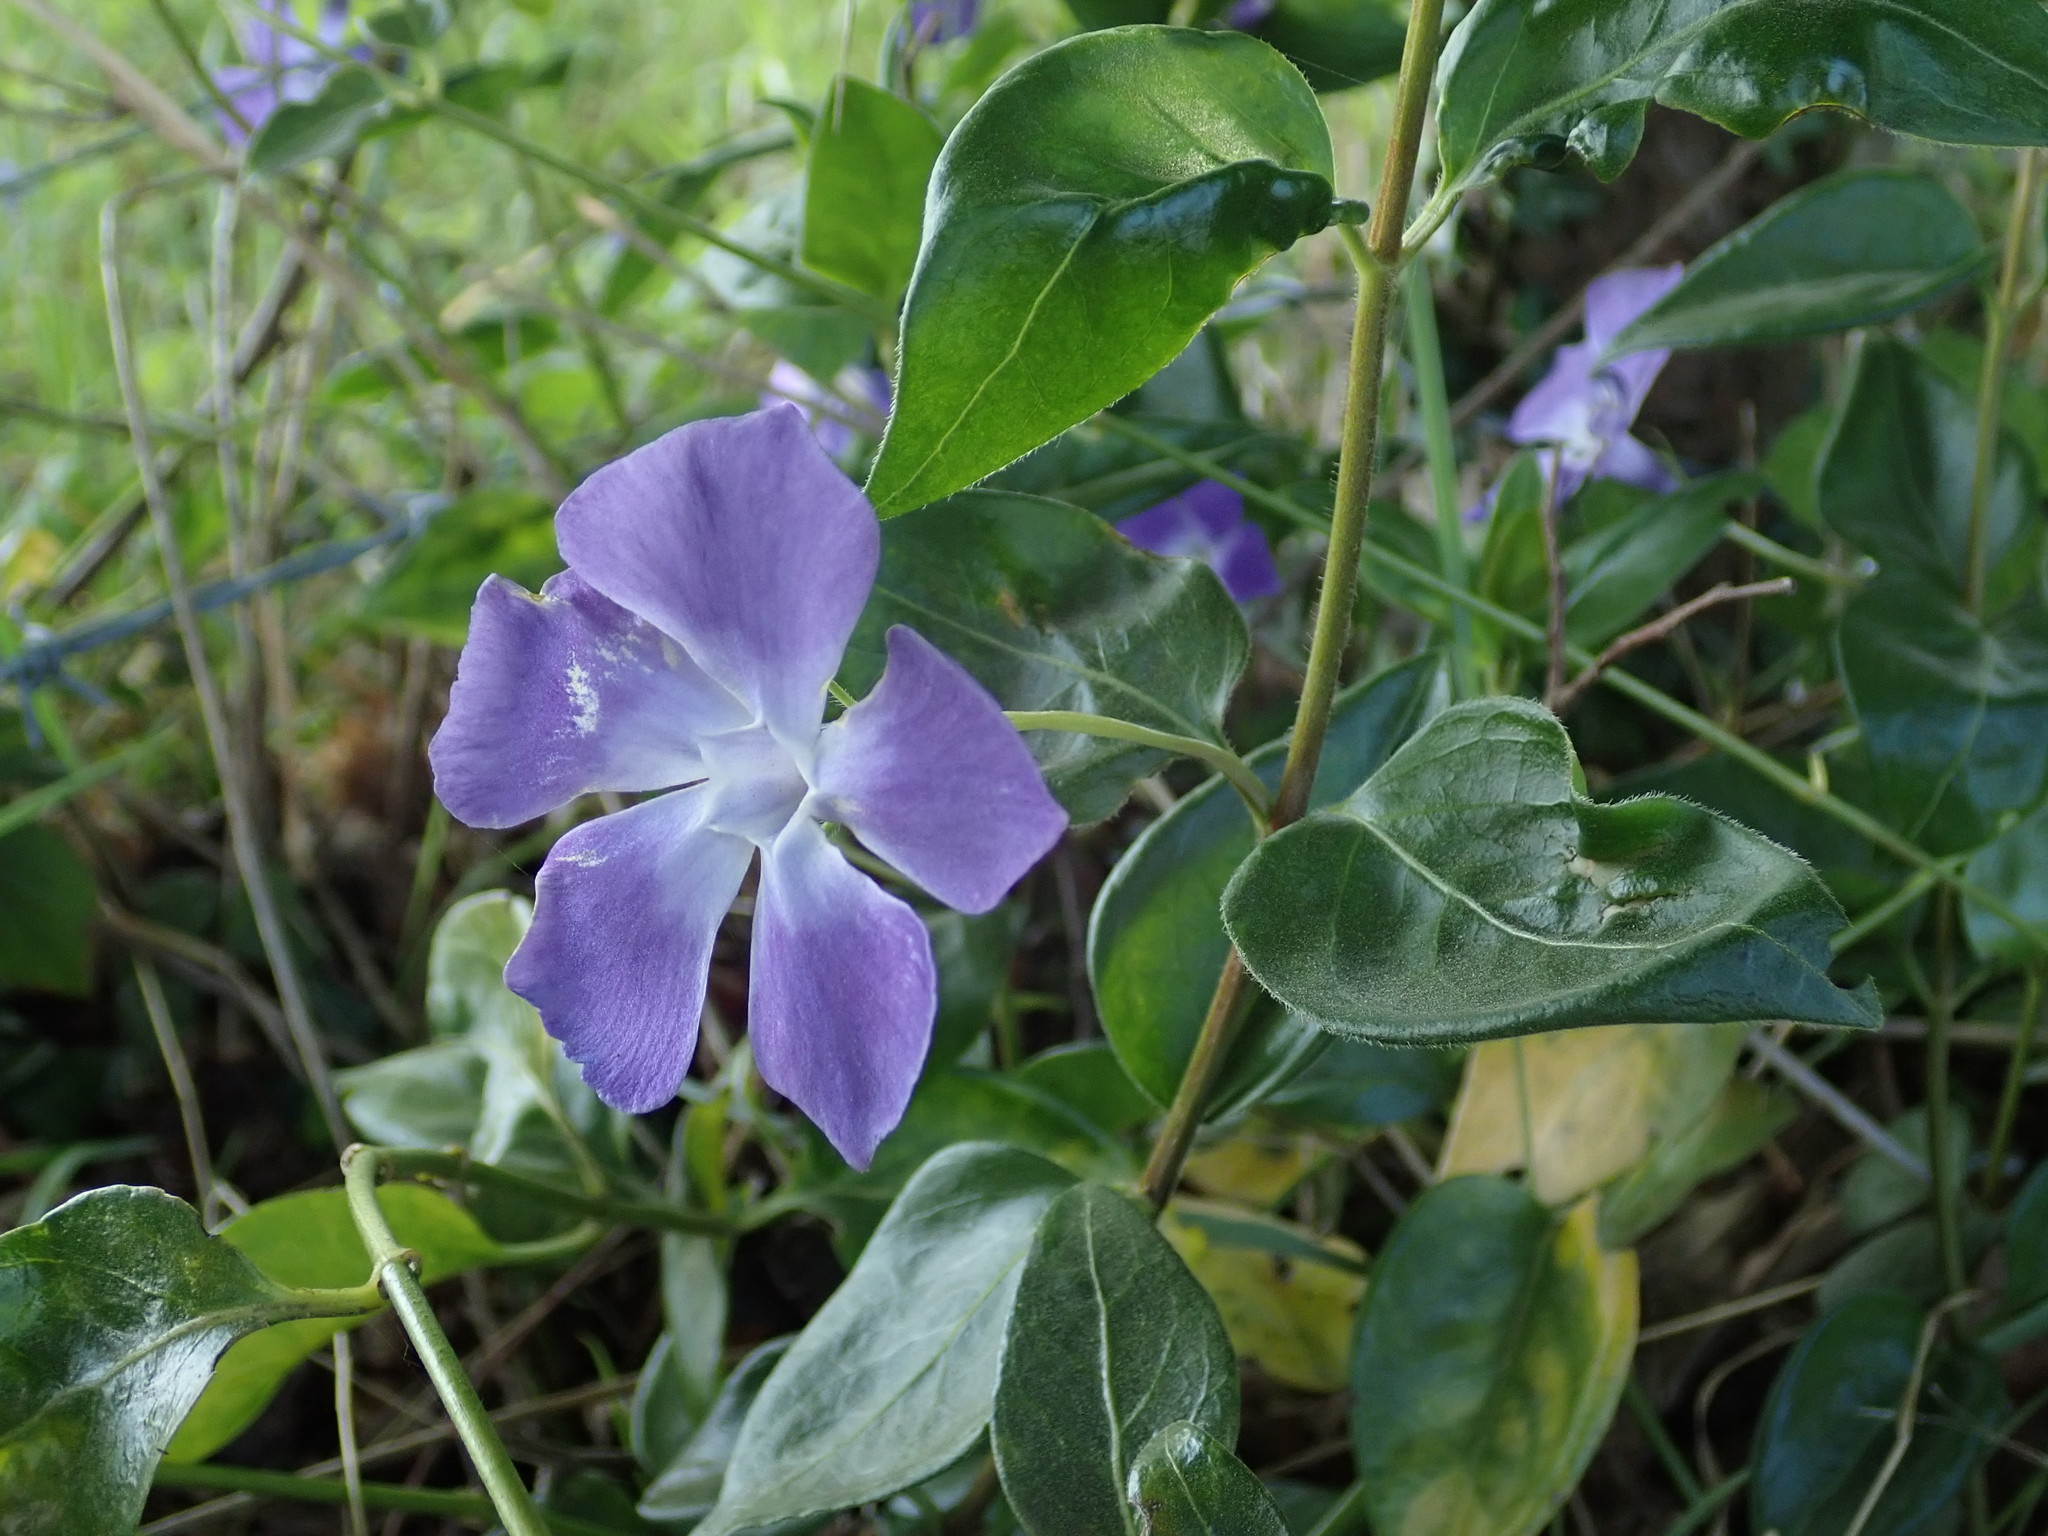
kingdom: Plantae
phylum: Tracheophyta
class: Magnoliopsida
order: Gentianales
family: Apocynaceae
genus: Vinca
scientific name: Vinca major
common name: Greater periwinkle
